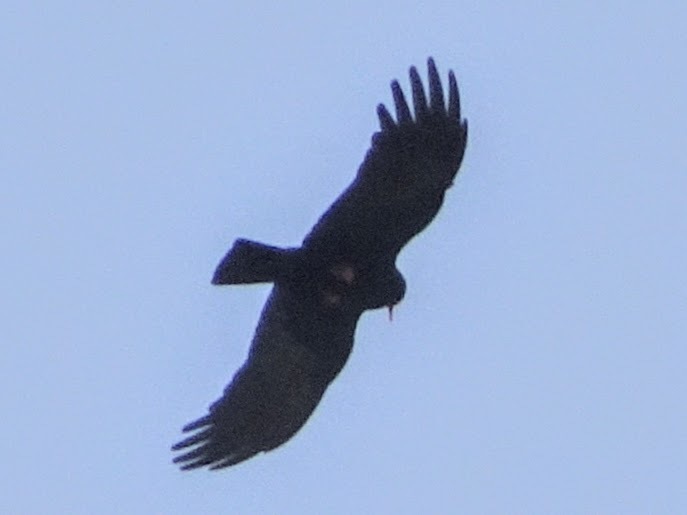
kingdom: Animalia
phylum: Chordata
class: Aves
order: Passeriformes
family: Corvidae
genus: Pyrrhocorax
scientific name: Pyrrhocorax pyrrhocorax
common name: Red-billed chough
